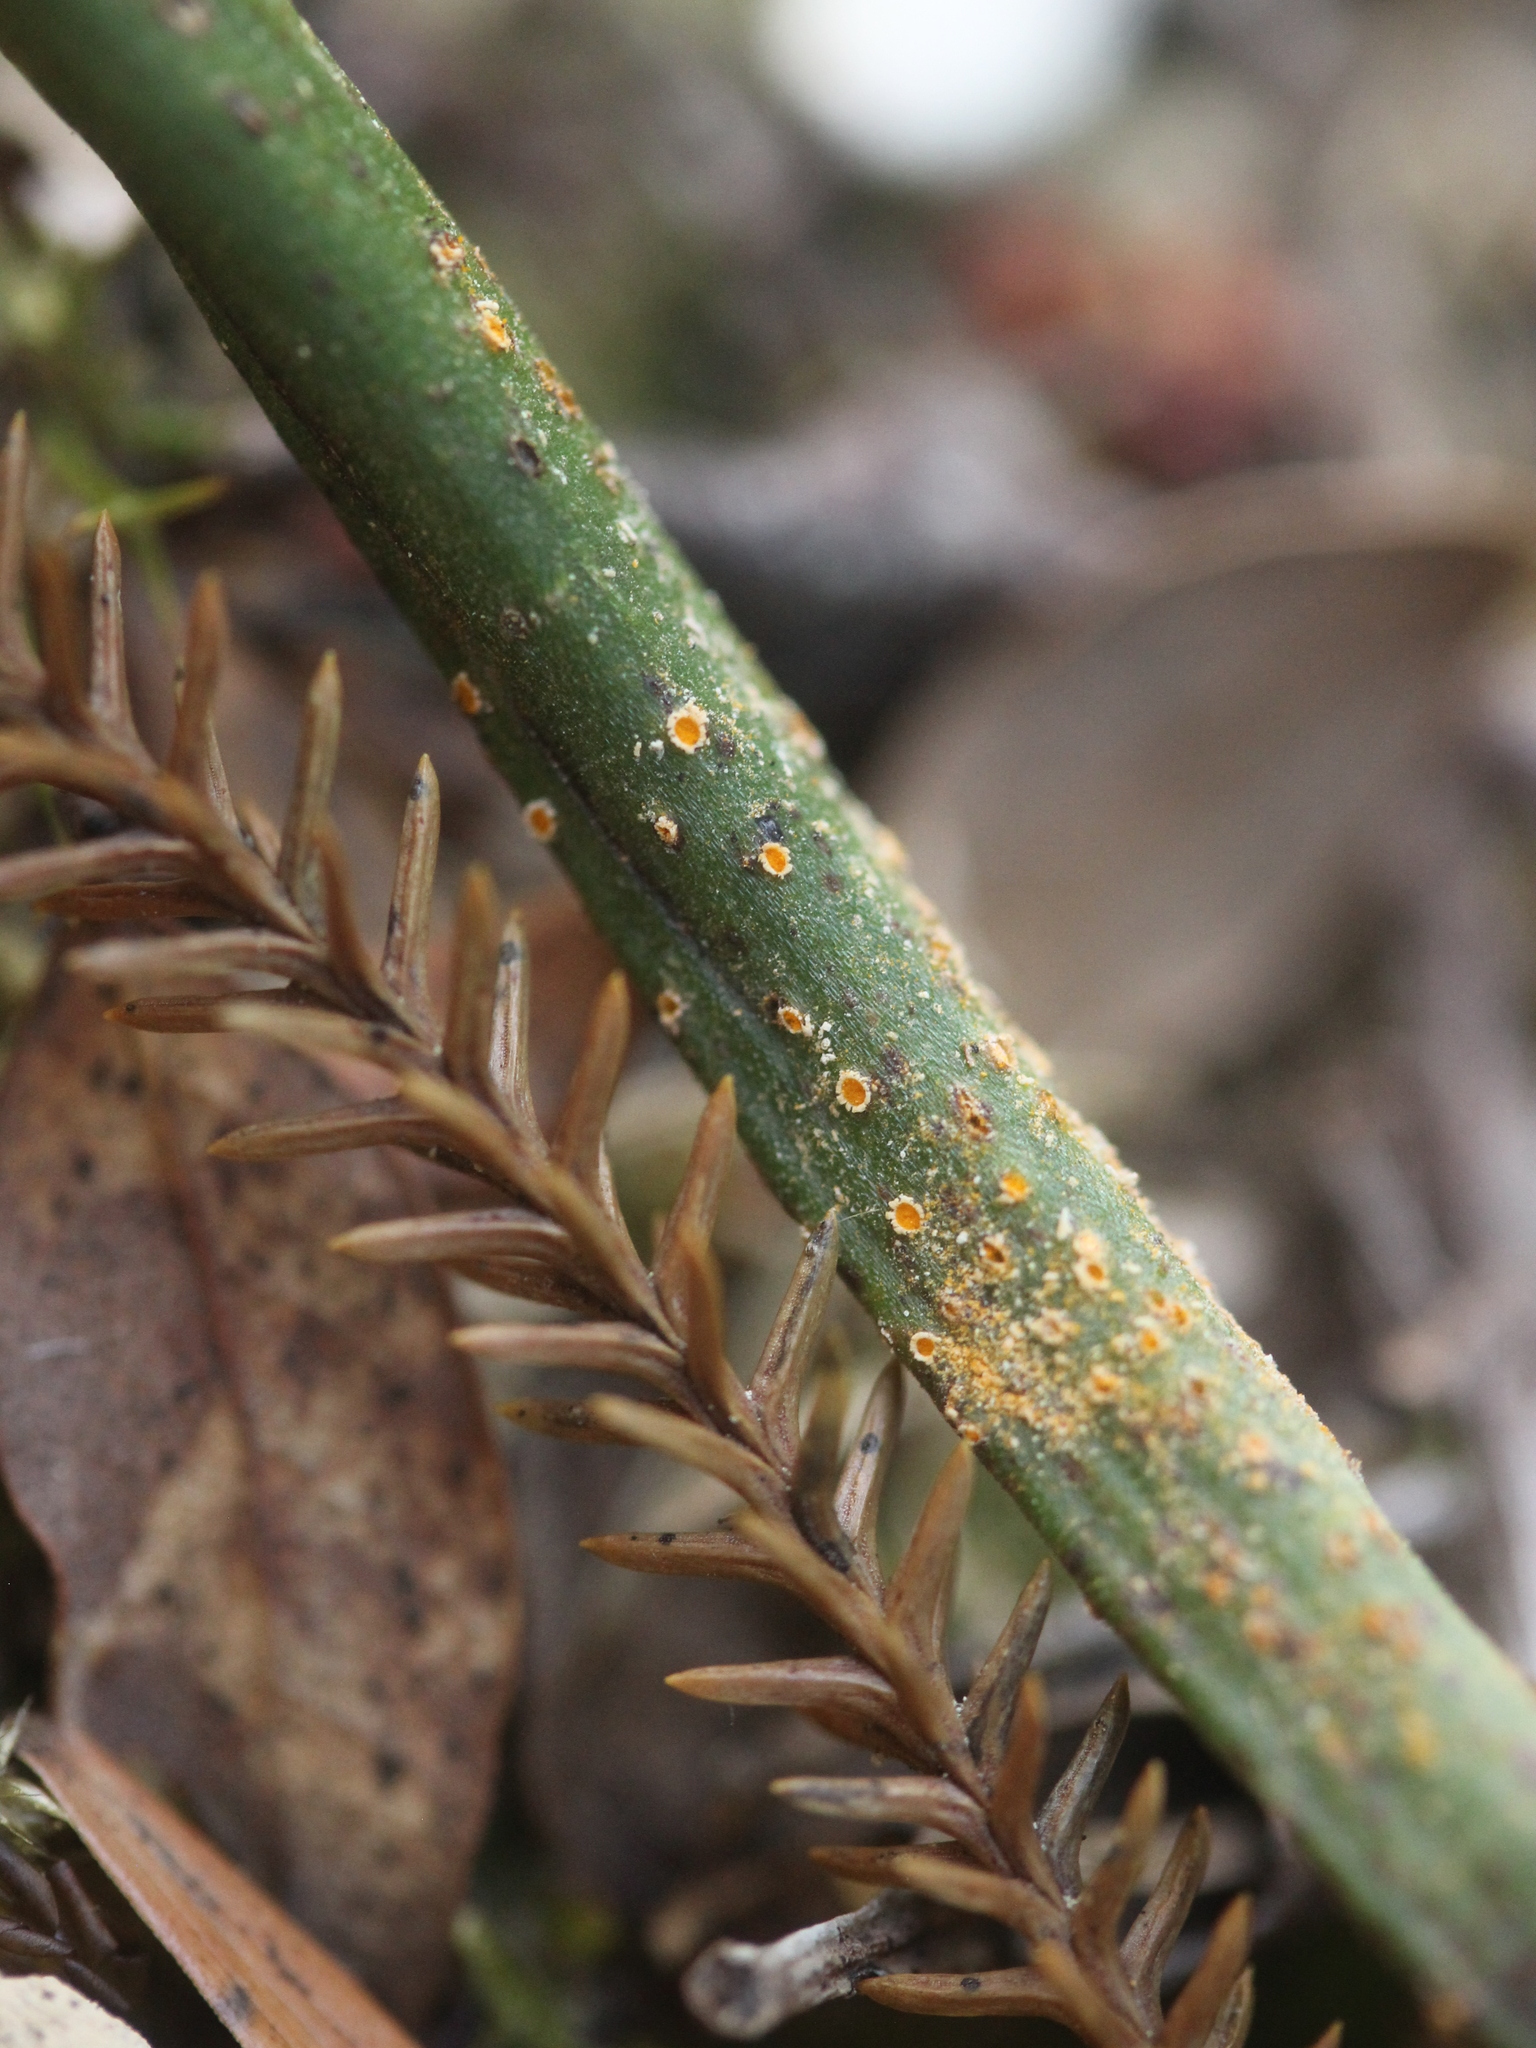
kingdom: Fungi
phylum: Basidiomycota
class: Pucciniomycetes
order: Pucciniales
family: Pucciniaceae
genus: Uromyces
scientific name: Uromyces thelymitrae
